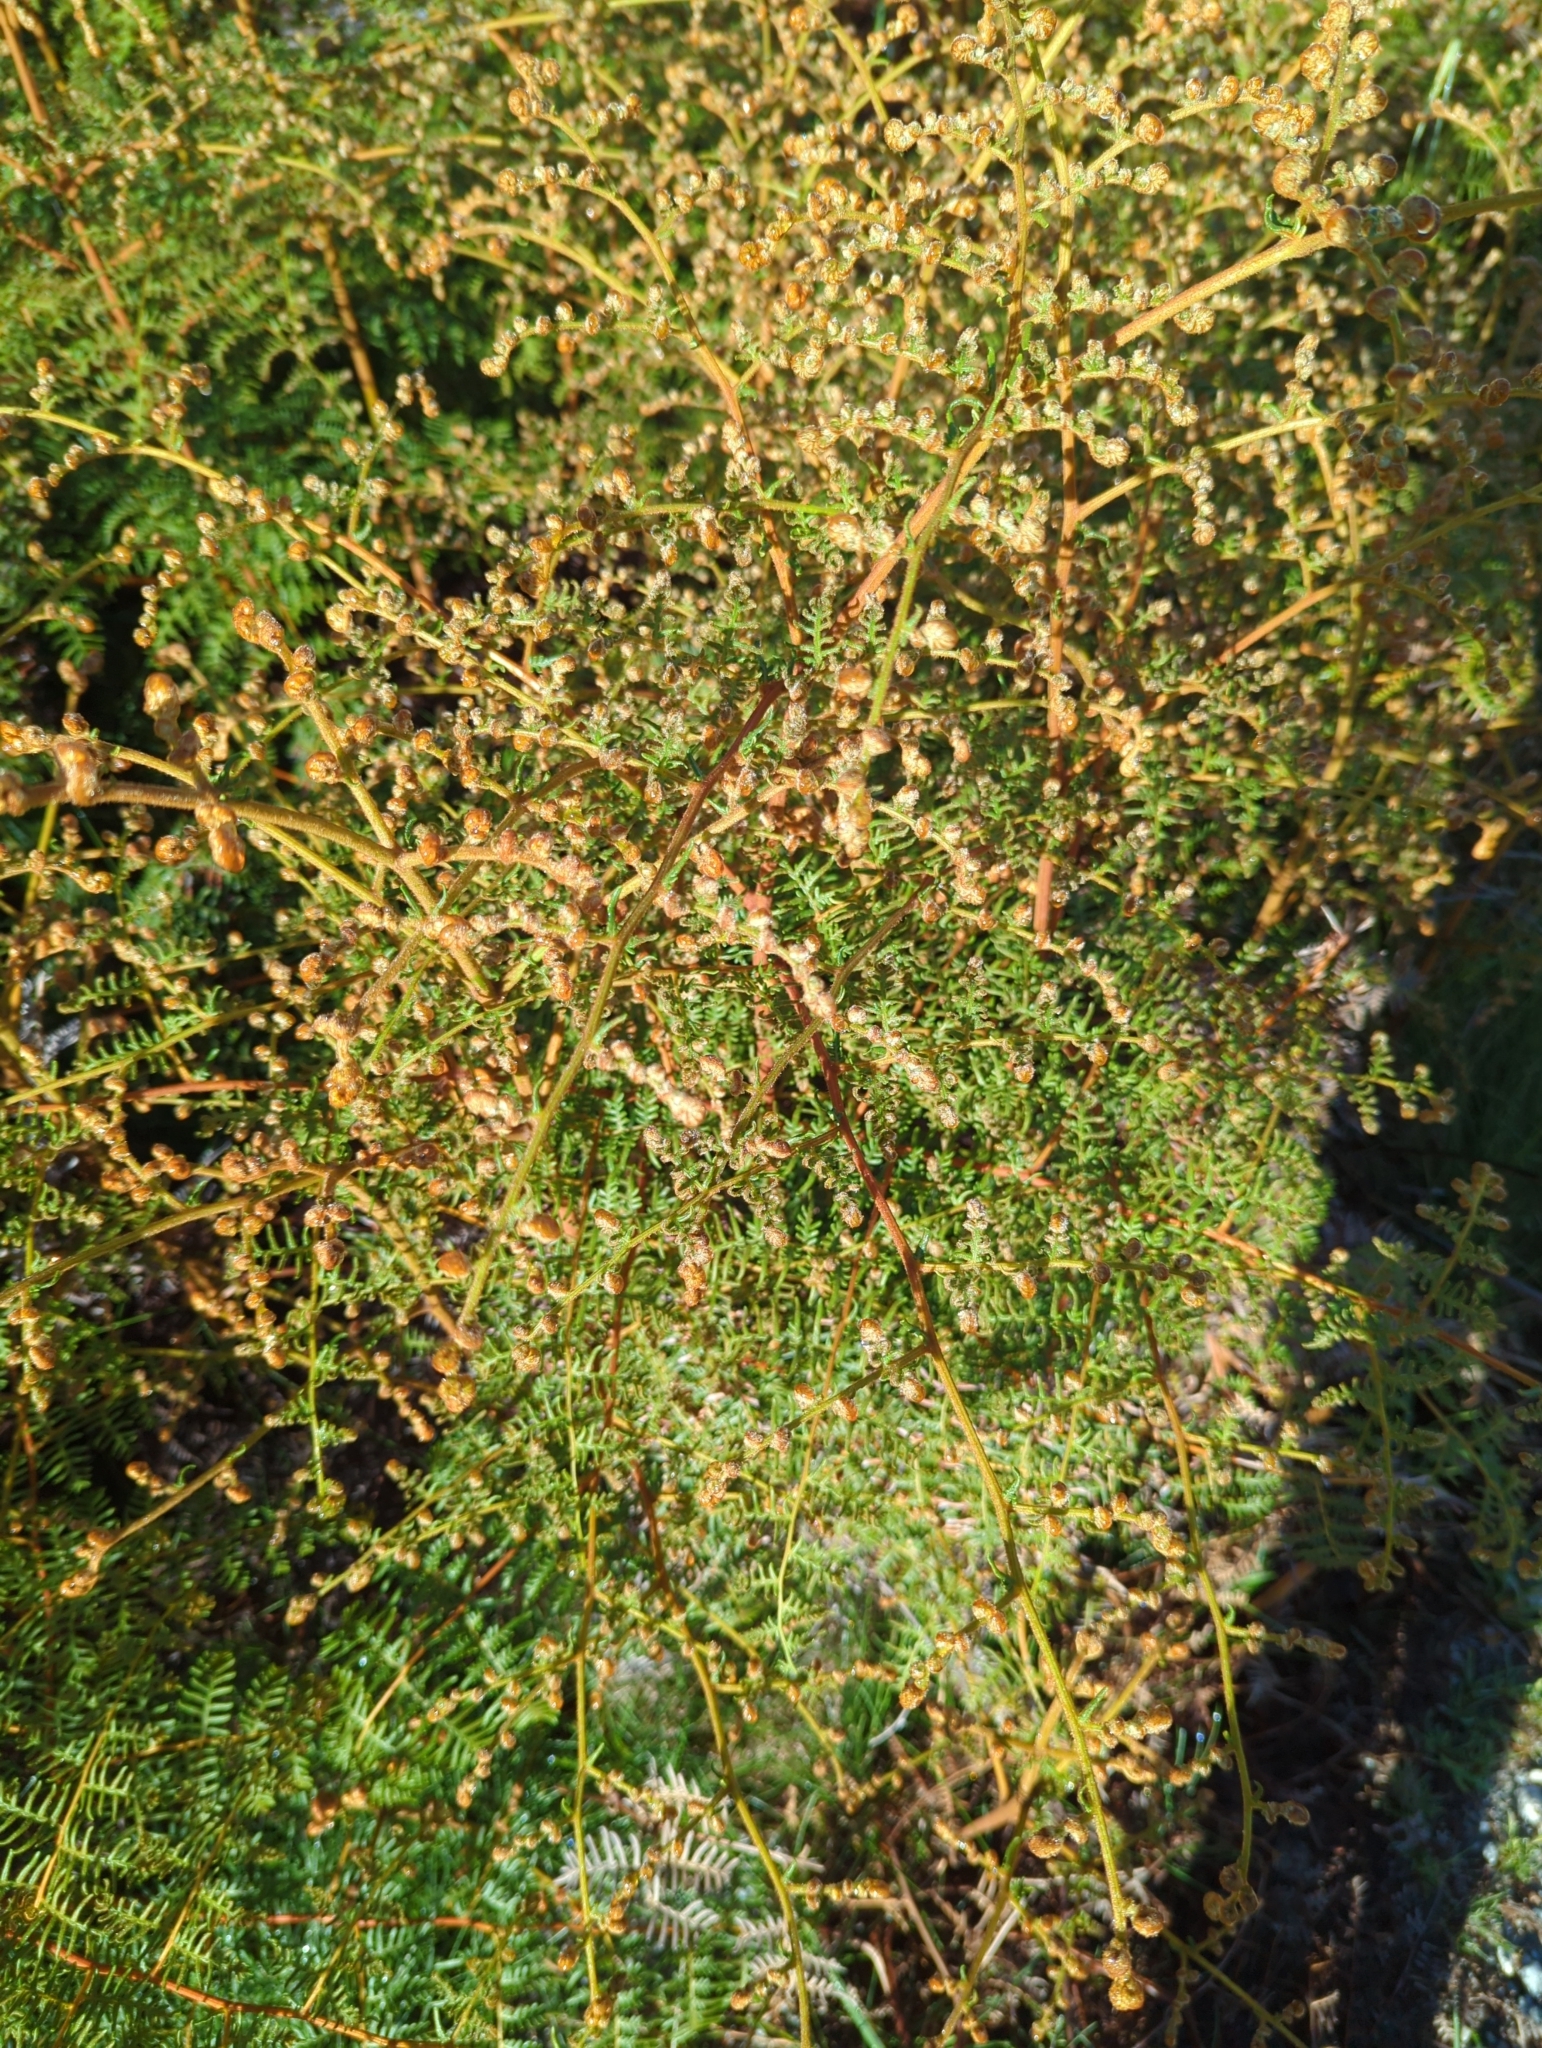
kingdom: Plantae
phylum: Tracheophyta
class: Polypodiopsida
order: Polypodiales
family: Dennstaedtiaceae
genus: Pteridium
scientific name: Pteridium esculentum
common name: Bracken fern
